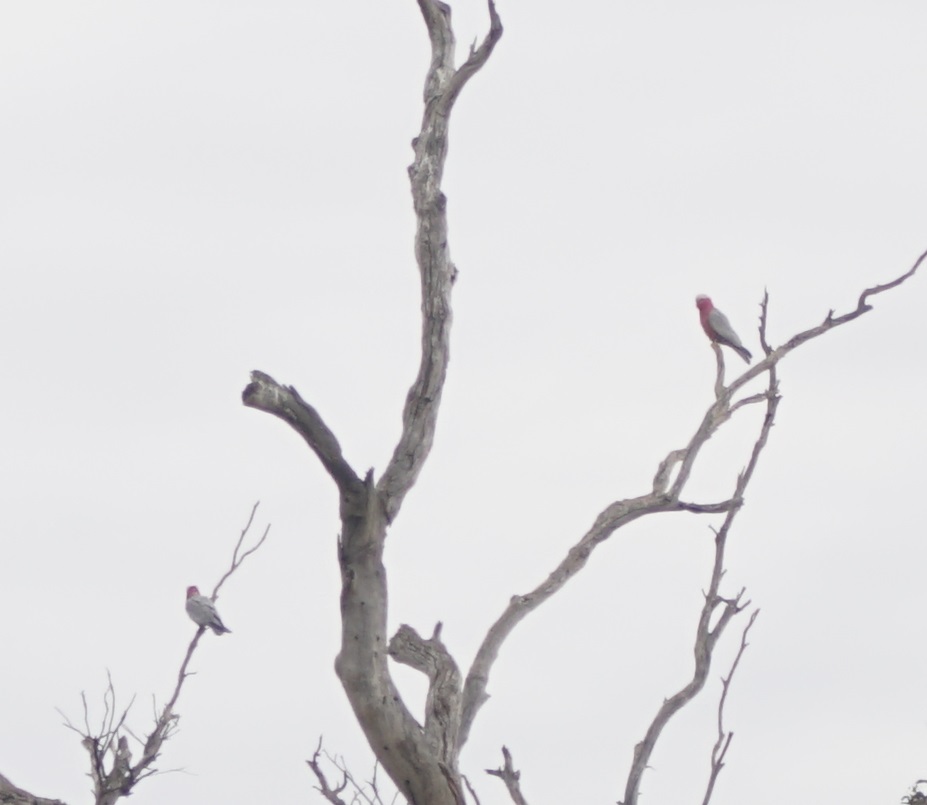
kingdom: Animalia
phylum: Chordata
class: Aves
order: Psittaciformes
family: Psittacidae
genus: Eolophus
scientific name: Eolophus roseicapilla
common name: Galah
